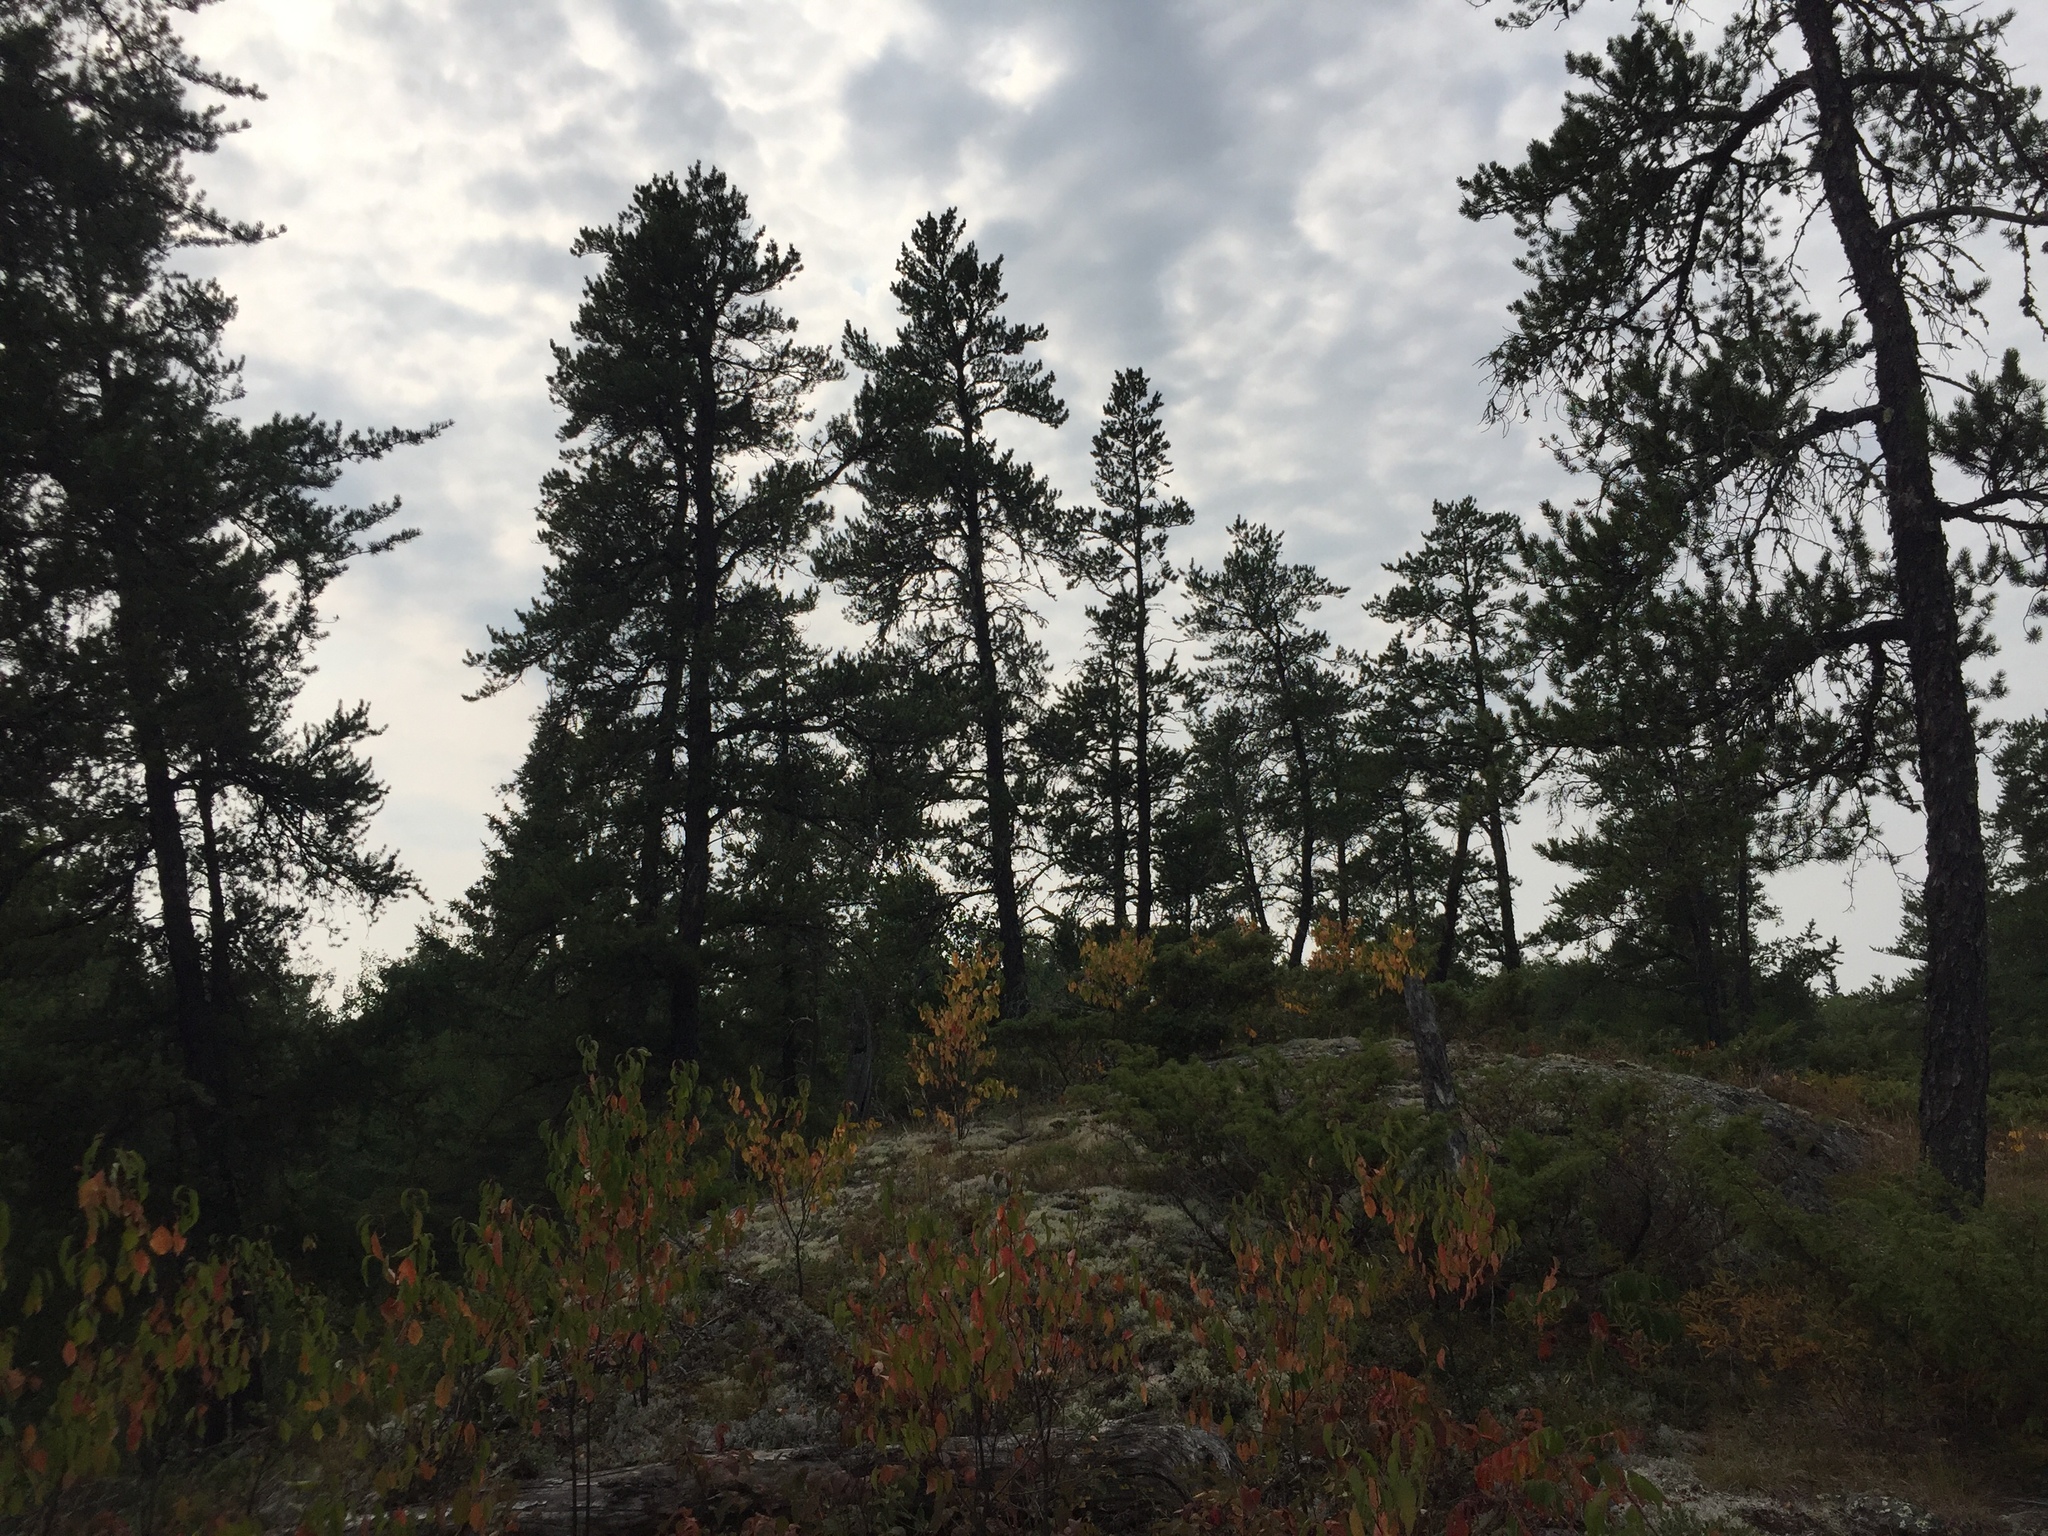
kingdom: Plantae
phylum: Tracheophyta
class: Pinopsida
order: Pinales
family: Pinaceae
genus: Pinus
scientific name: Pinus banksiana
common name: Jack pine
